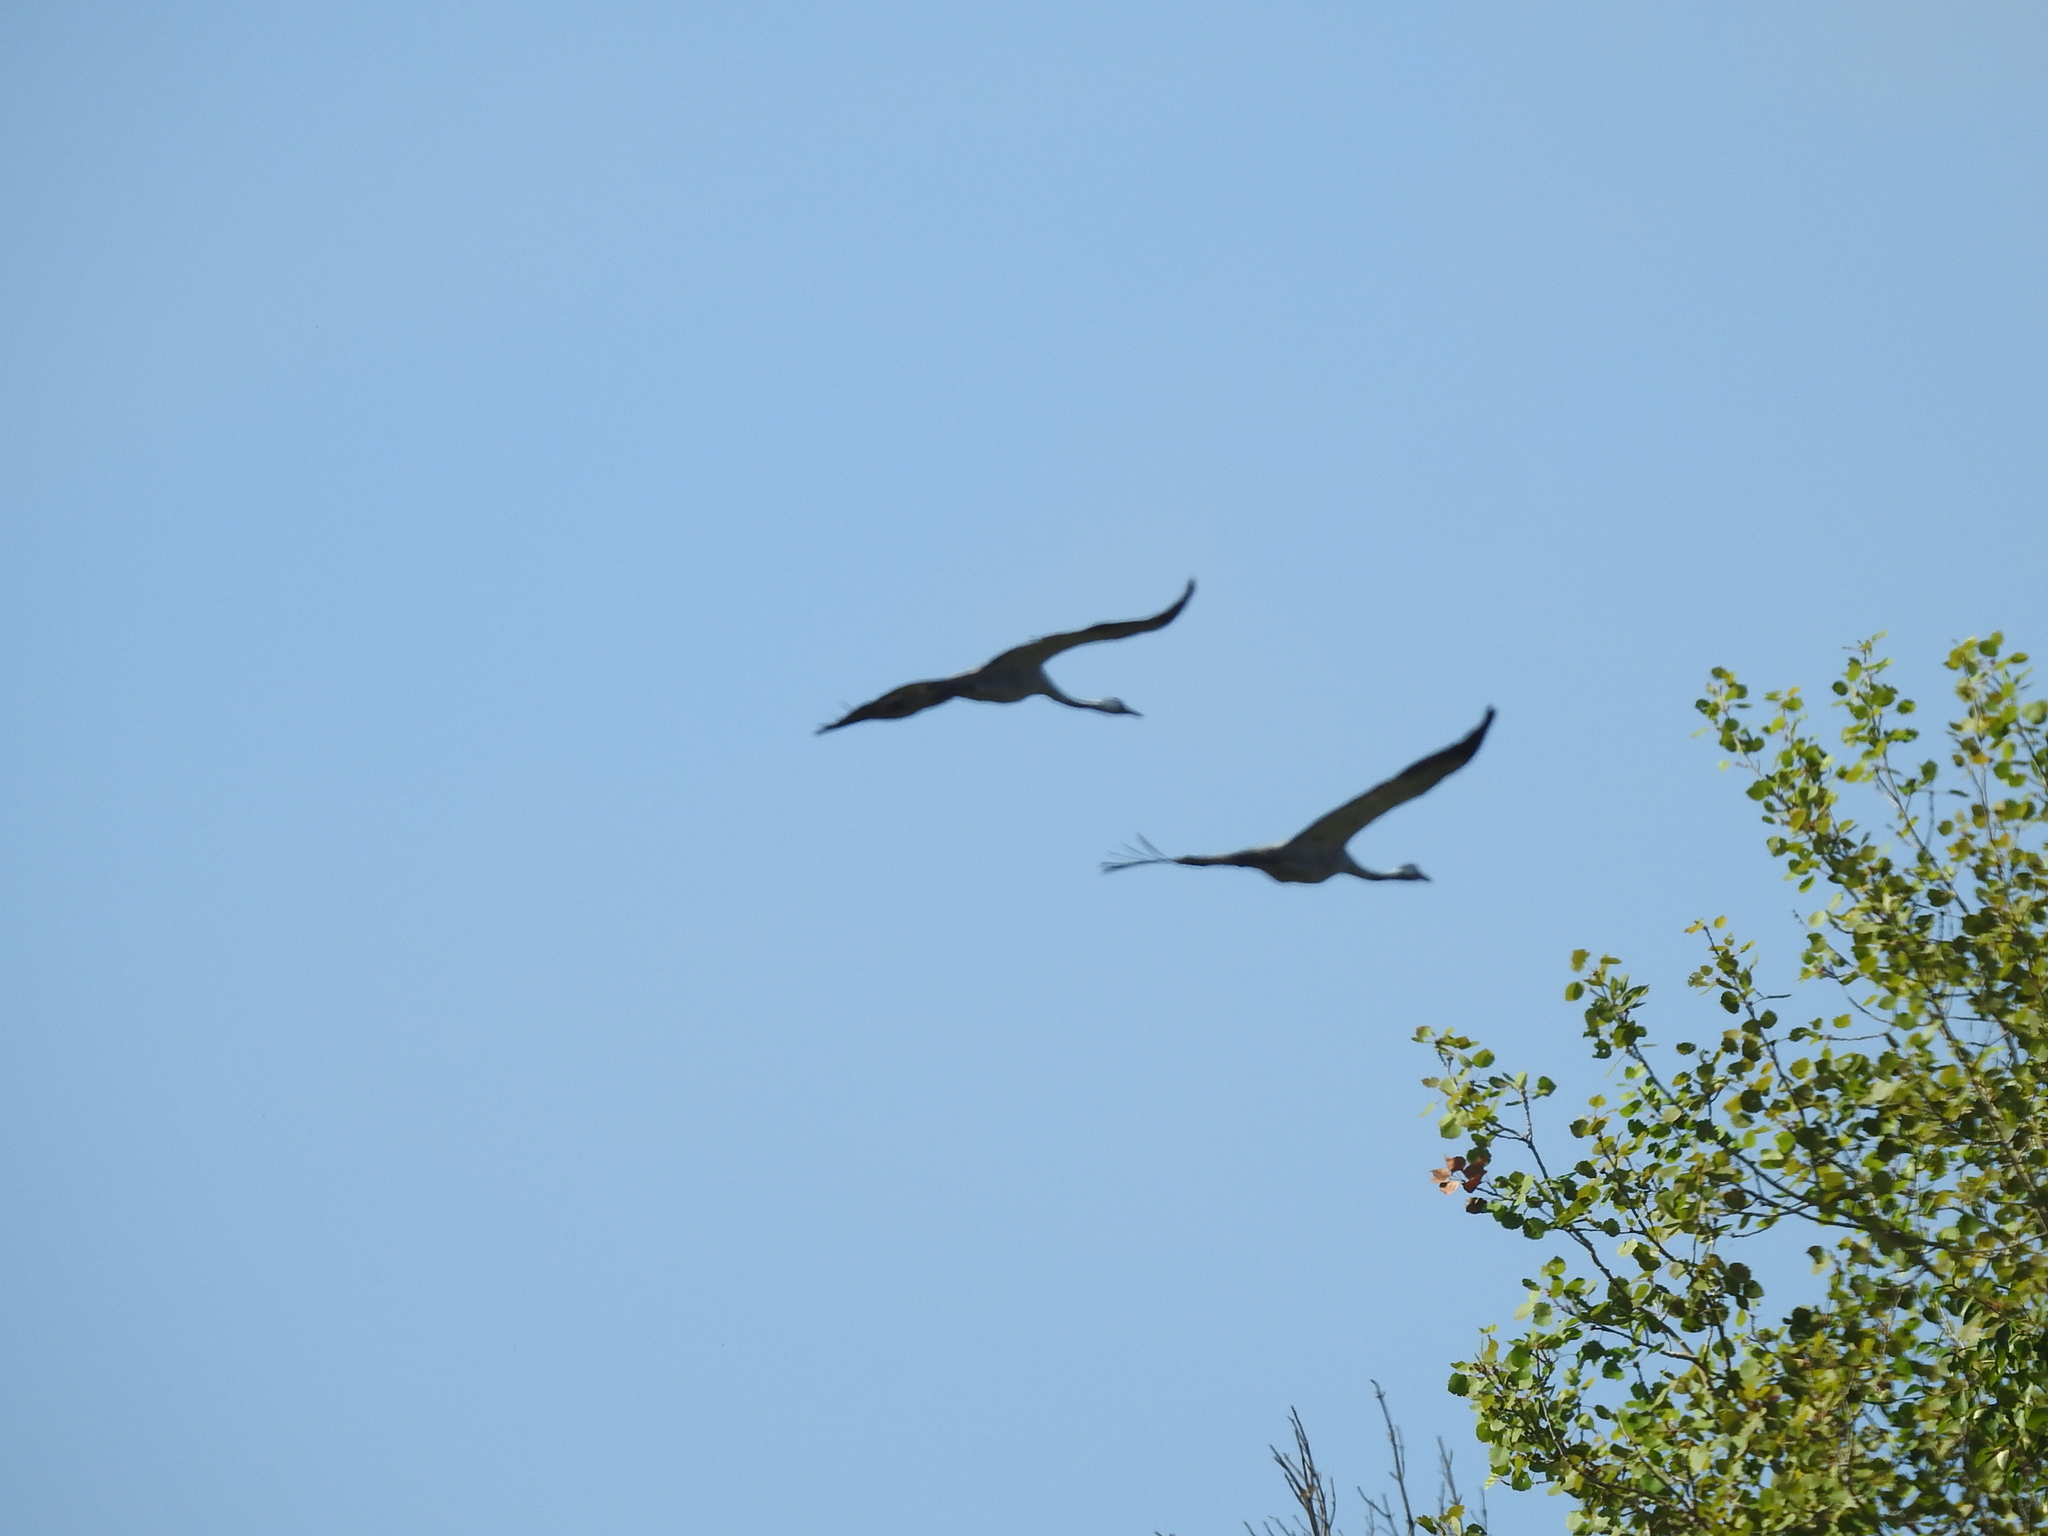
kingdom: Animalia
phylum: Chordata
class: Aves
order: Gruiformes
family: Gruidae
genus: Grus
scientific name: Grus grus
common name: Common crane
